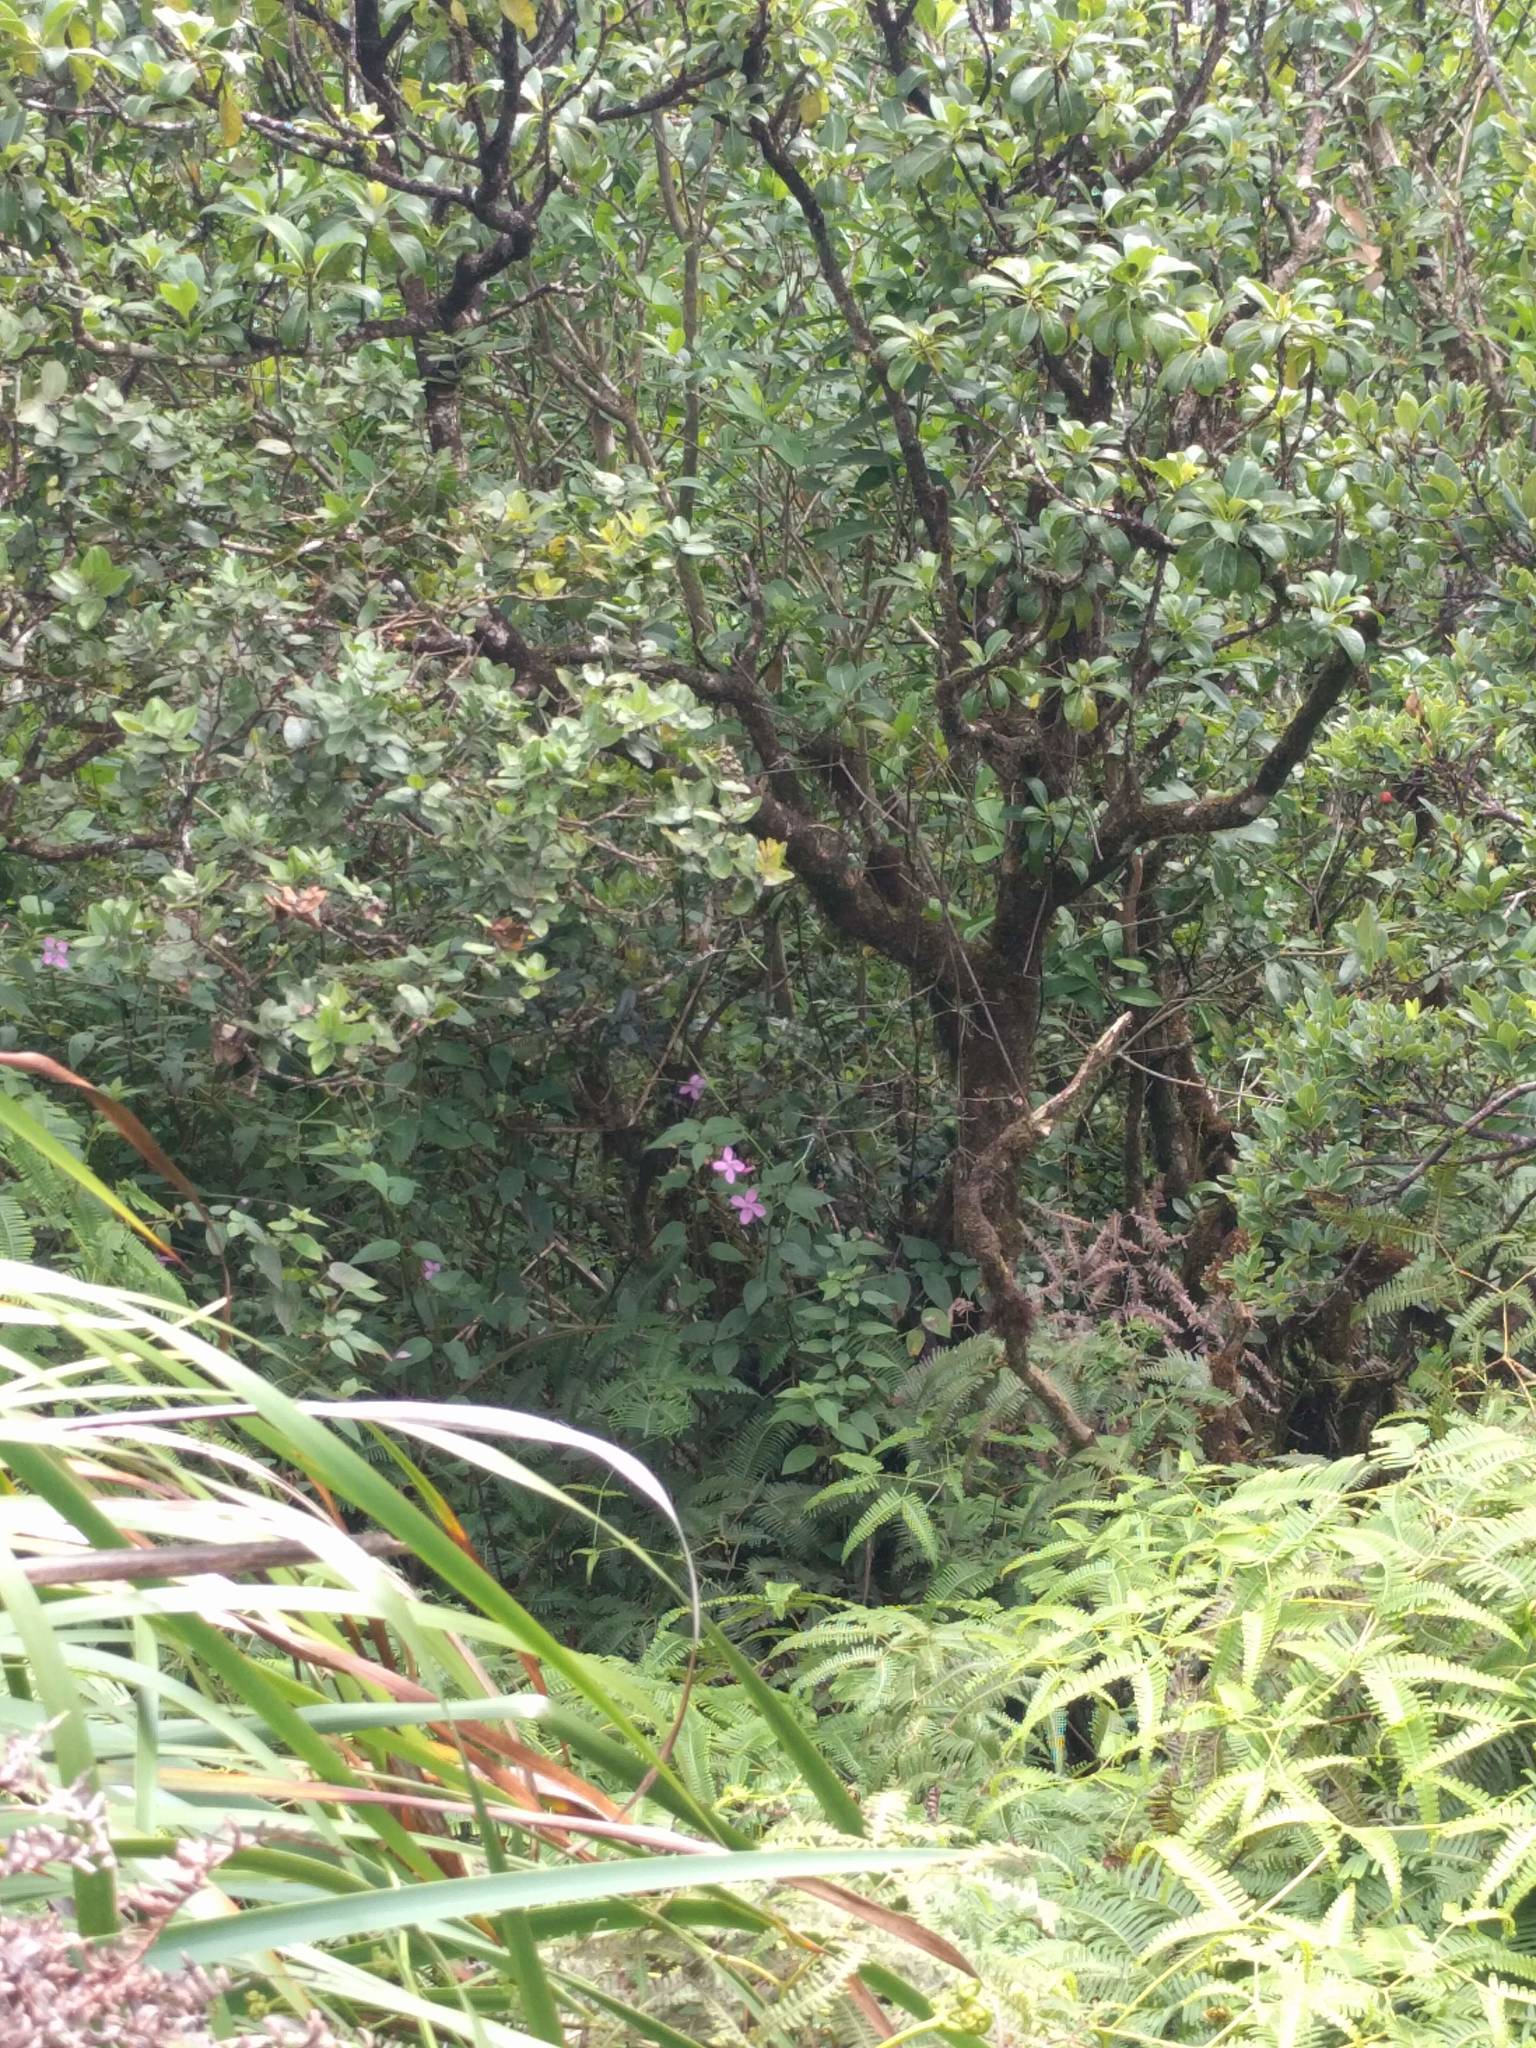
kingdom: Plantae
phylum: Tracheophyta
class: Magnoliopsida
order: Myrtales
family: Melastomataceae
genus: Arthrostemma
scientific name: Arthrostemma ciliatum
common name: Everblooming eavender
